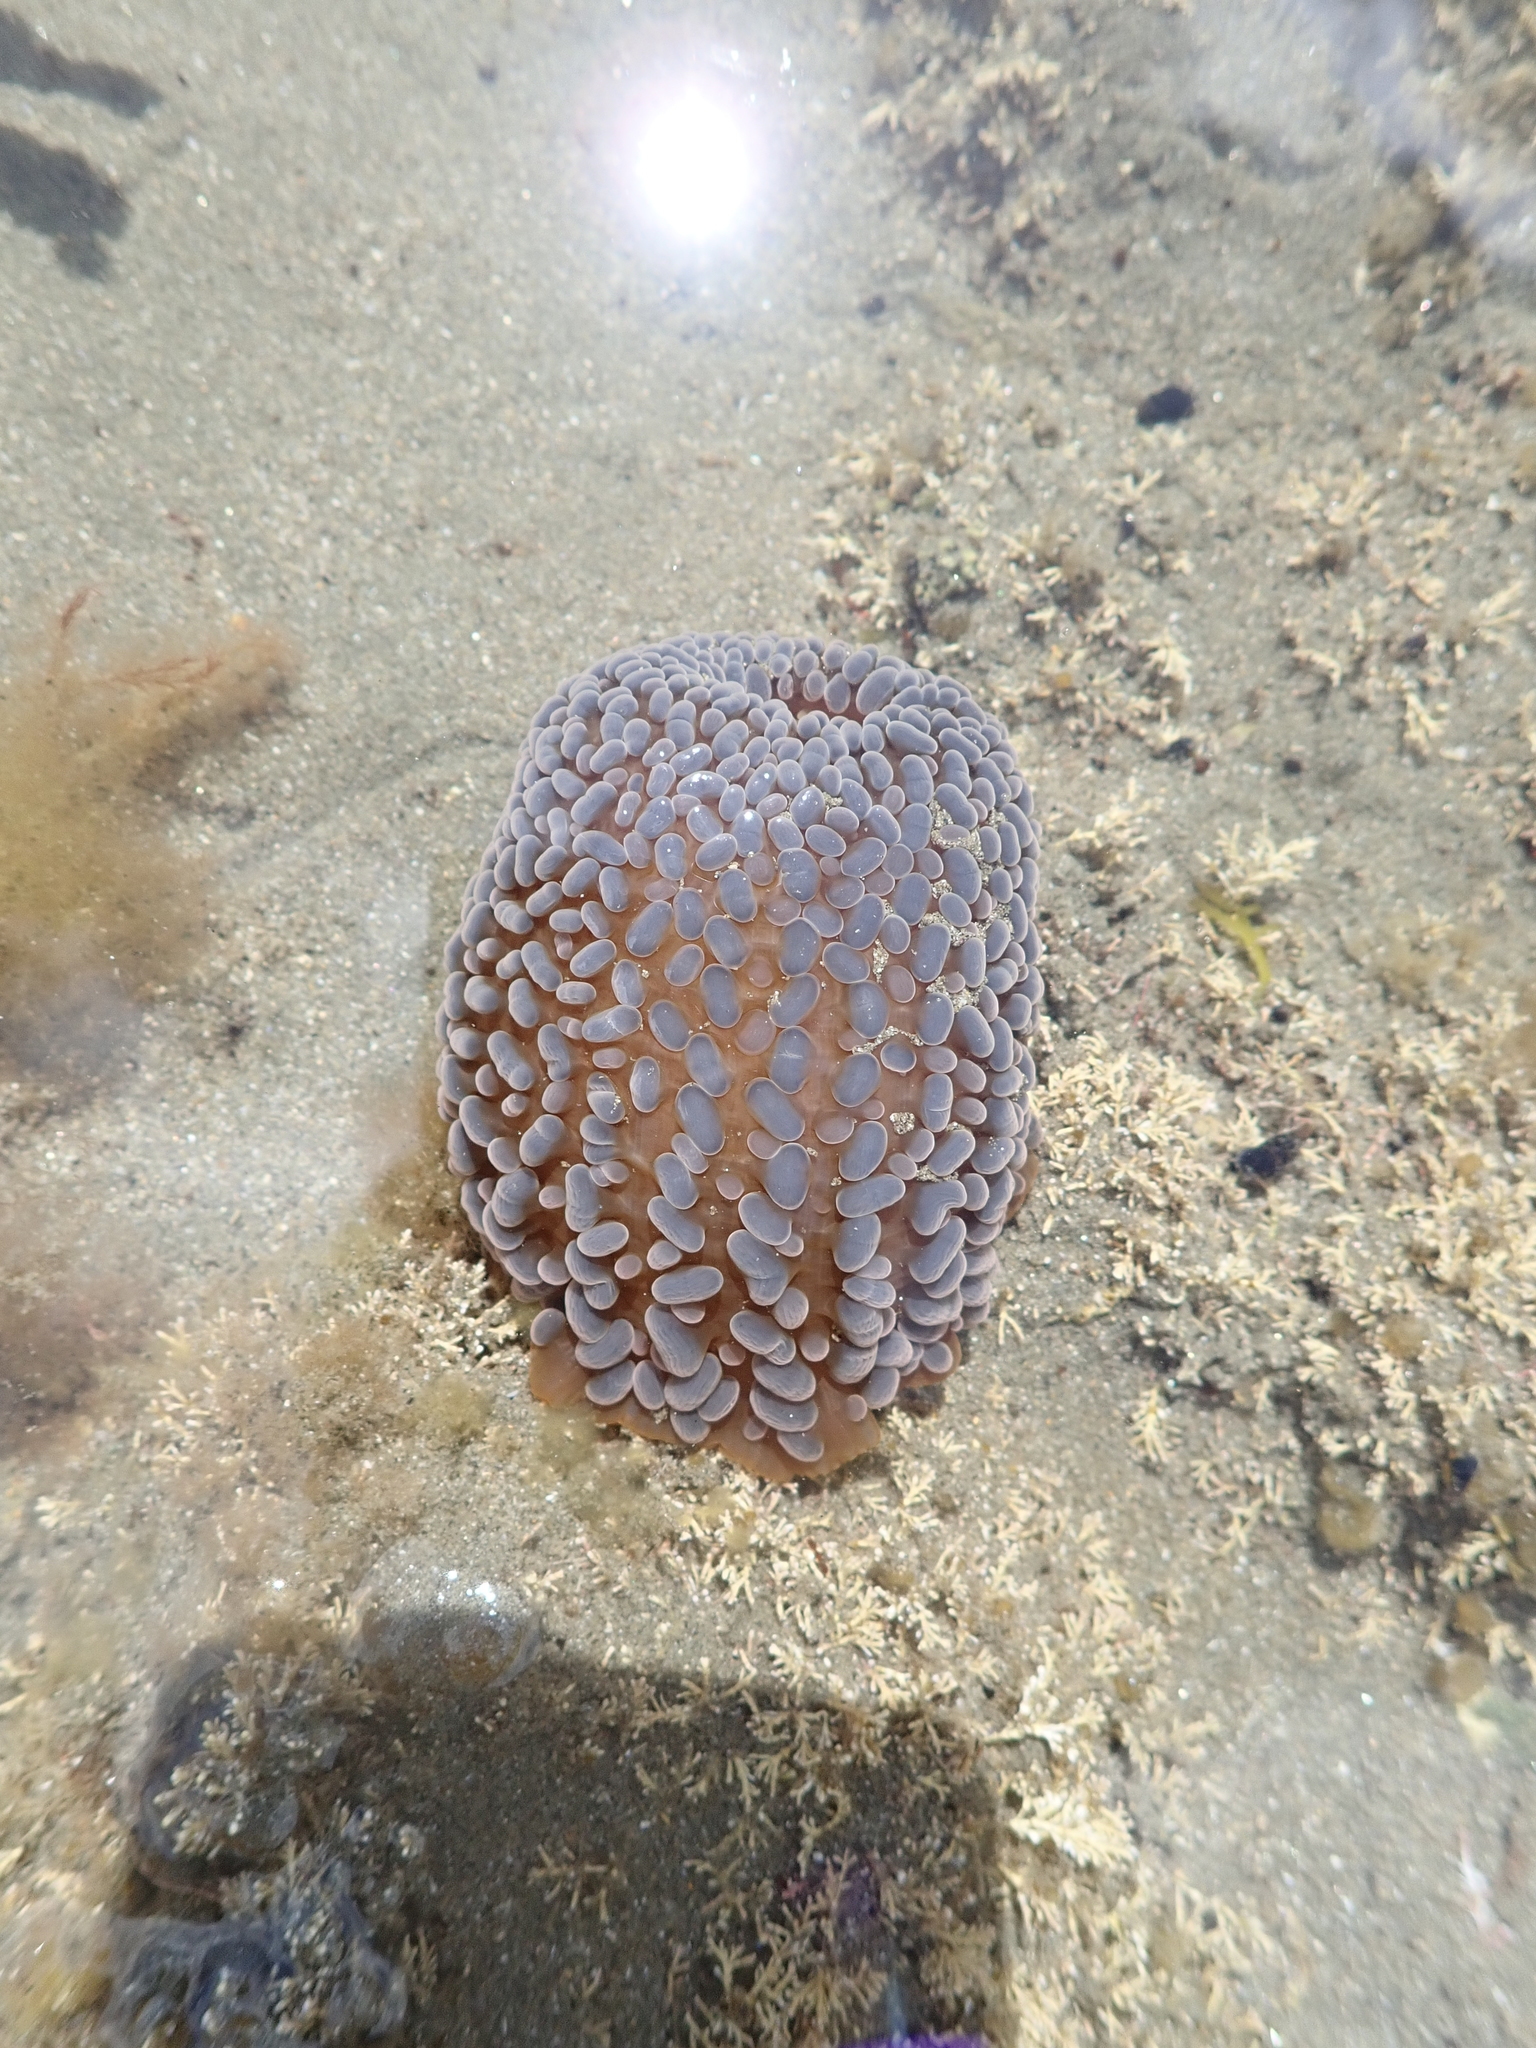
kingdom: Animalia
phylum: Cnidaria
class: Anthozoa
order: Actiniaria
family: Actiniidae
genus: Phlyctenactis
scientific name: Phlyctenactis tuberculosa
